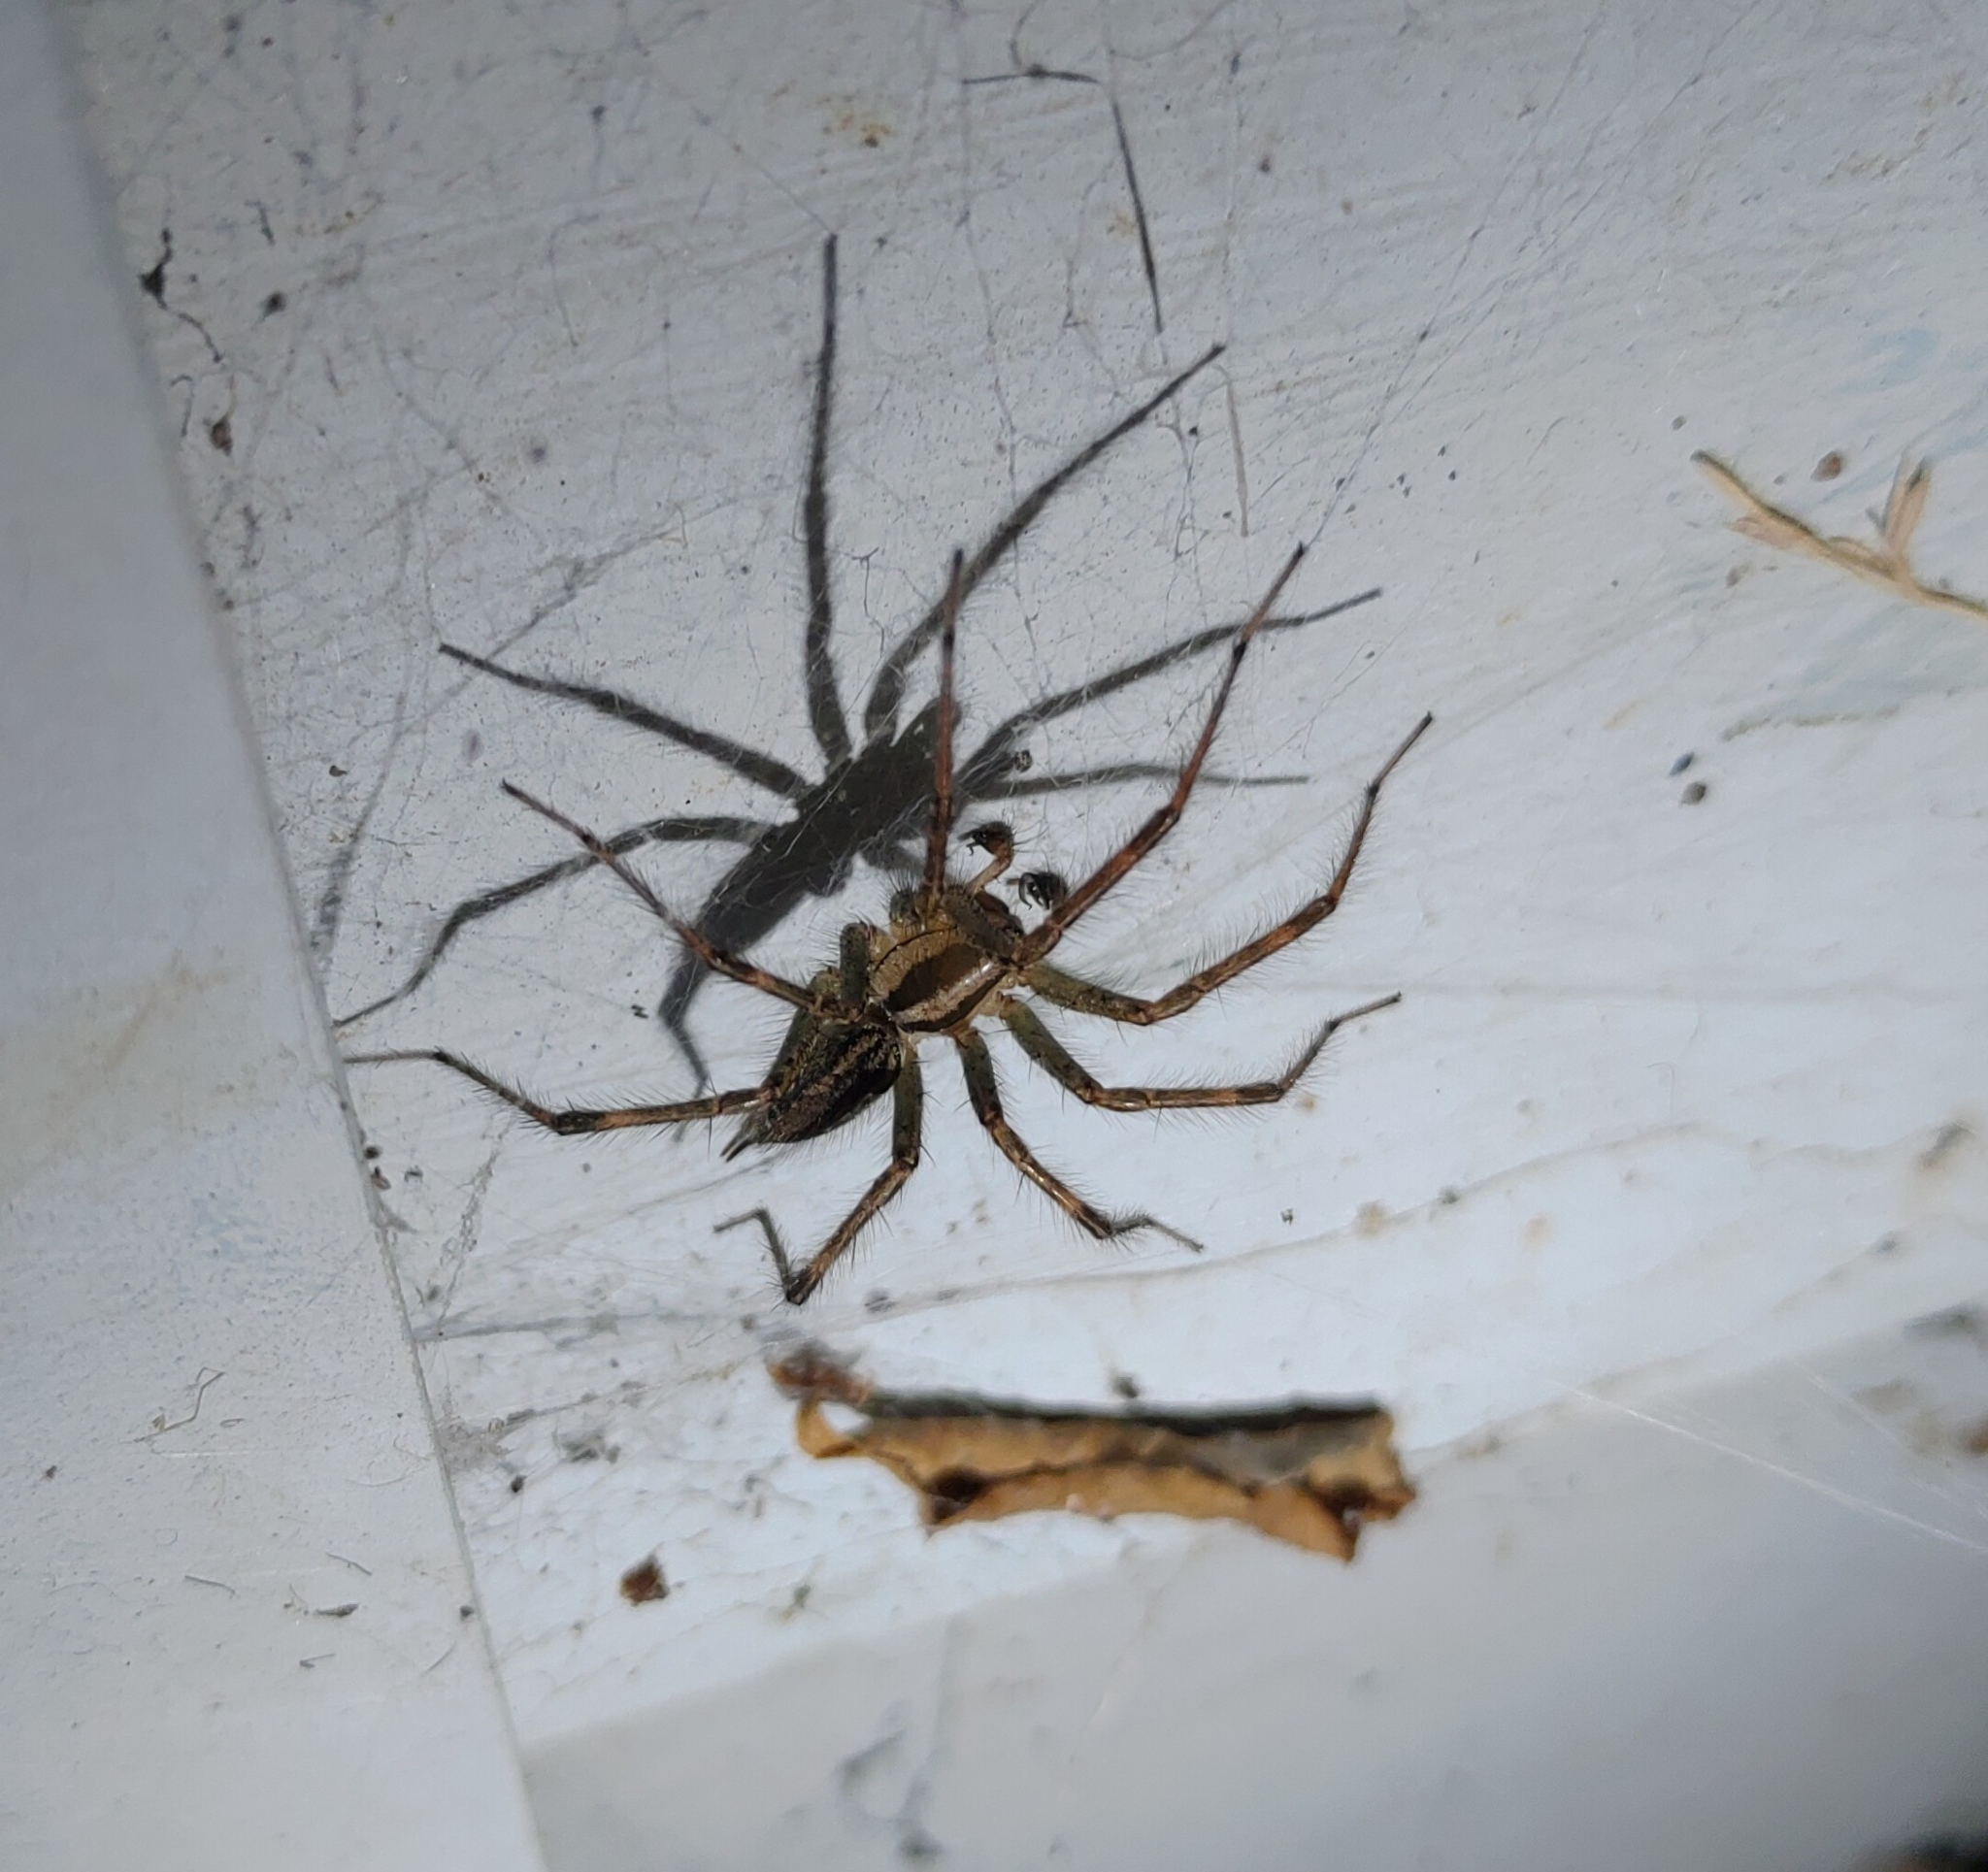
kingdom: Animalia
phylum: Arthropoda
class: Arachnida
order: Araneae
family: Agelenidae
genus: Agelenopsis
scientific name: Agelenopsis
